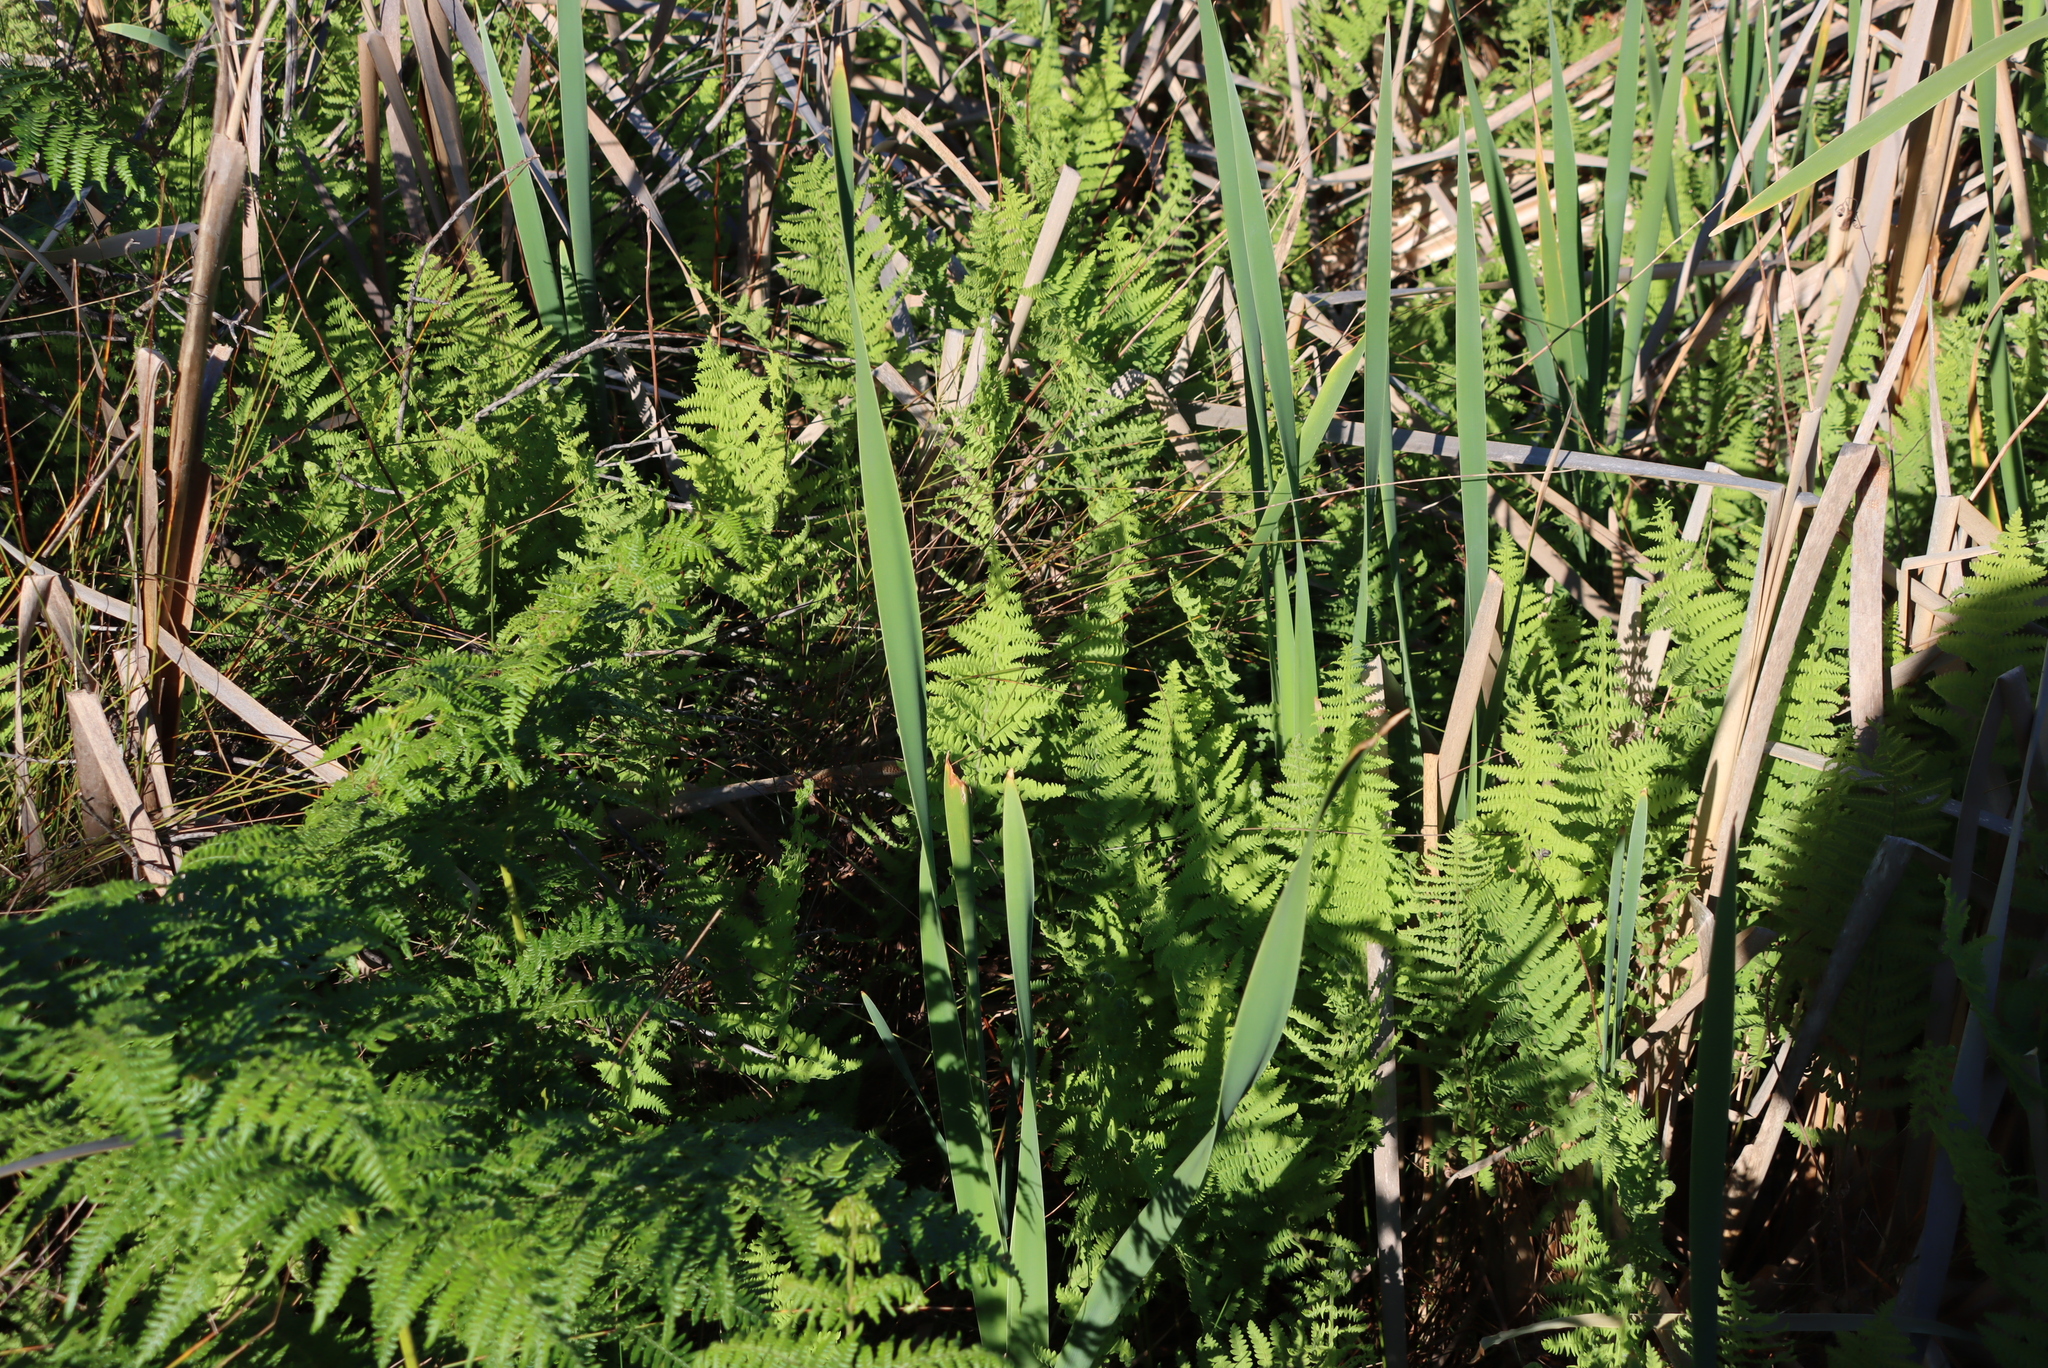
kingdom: Plantae
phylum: Tracheophyta
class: Polypodiopsida
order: Polypodiales
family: Thelypteridaceae
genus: Thelypteris
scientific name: Thelypteris confluens
